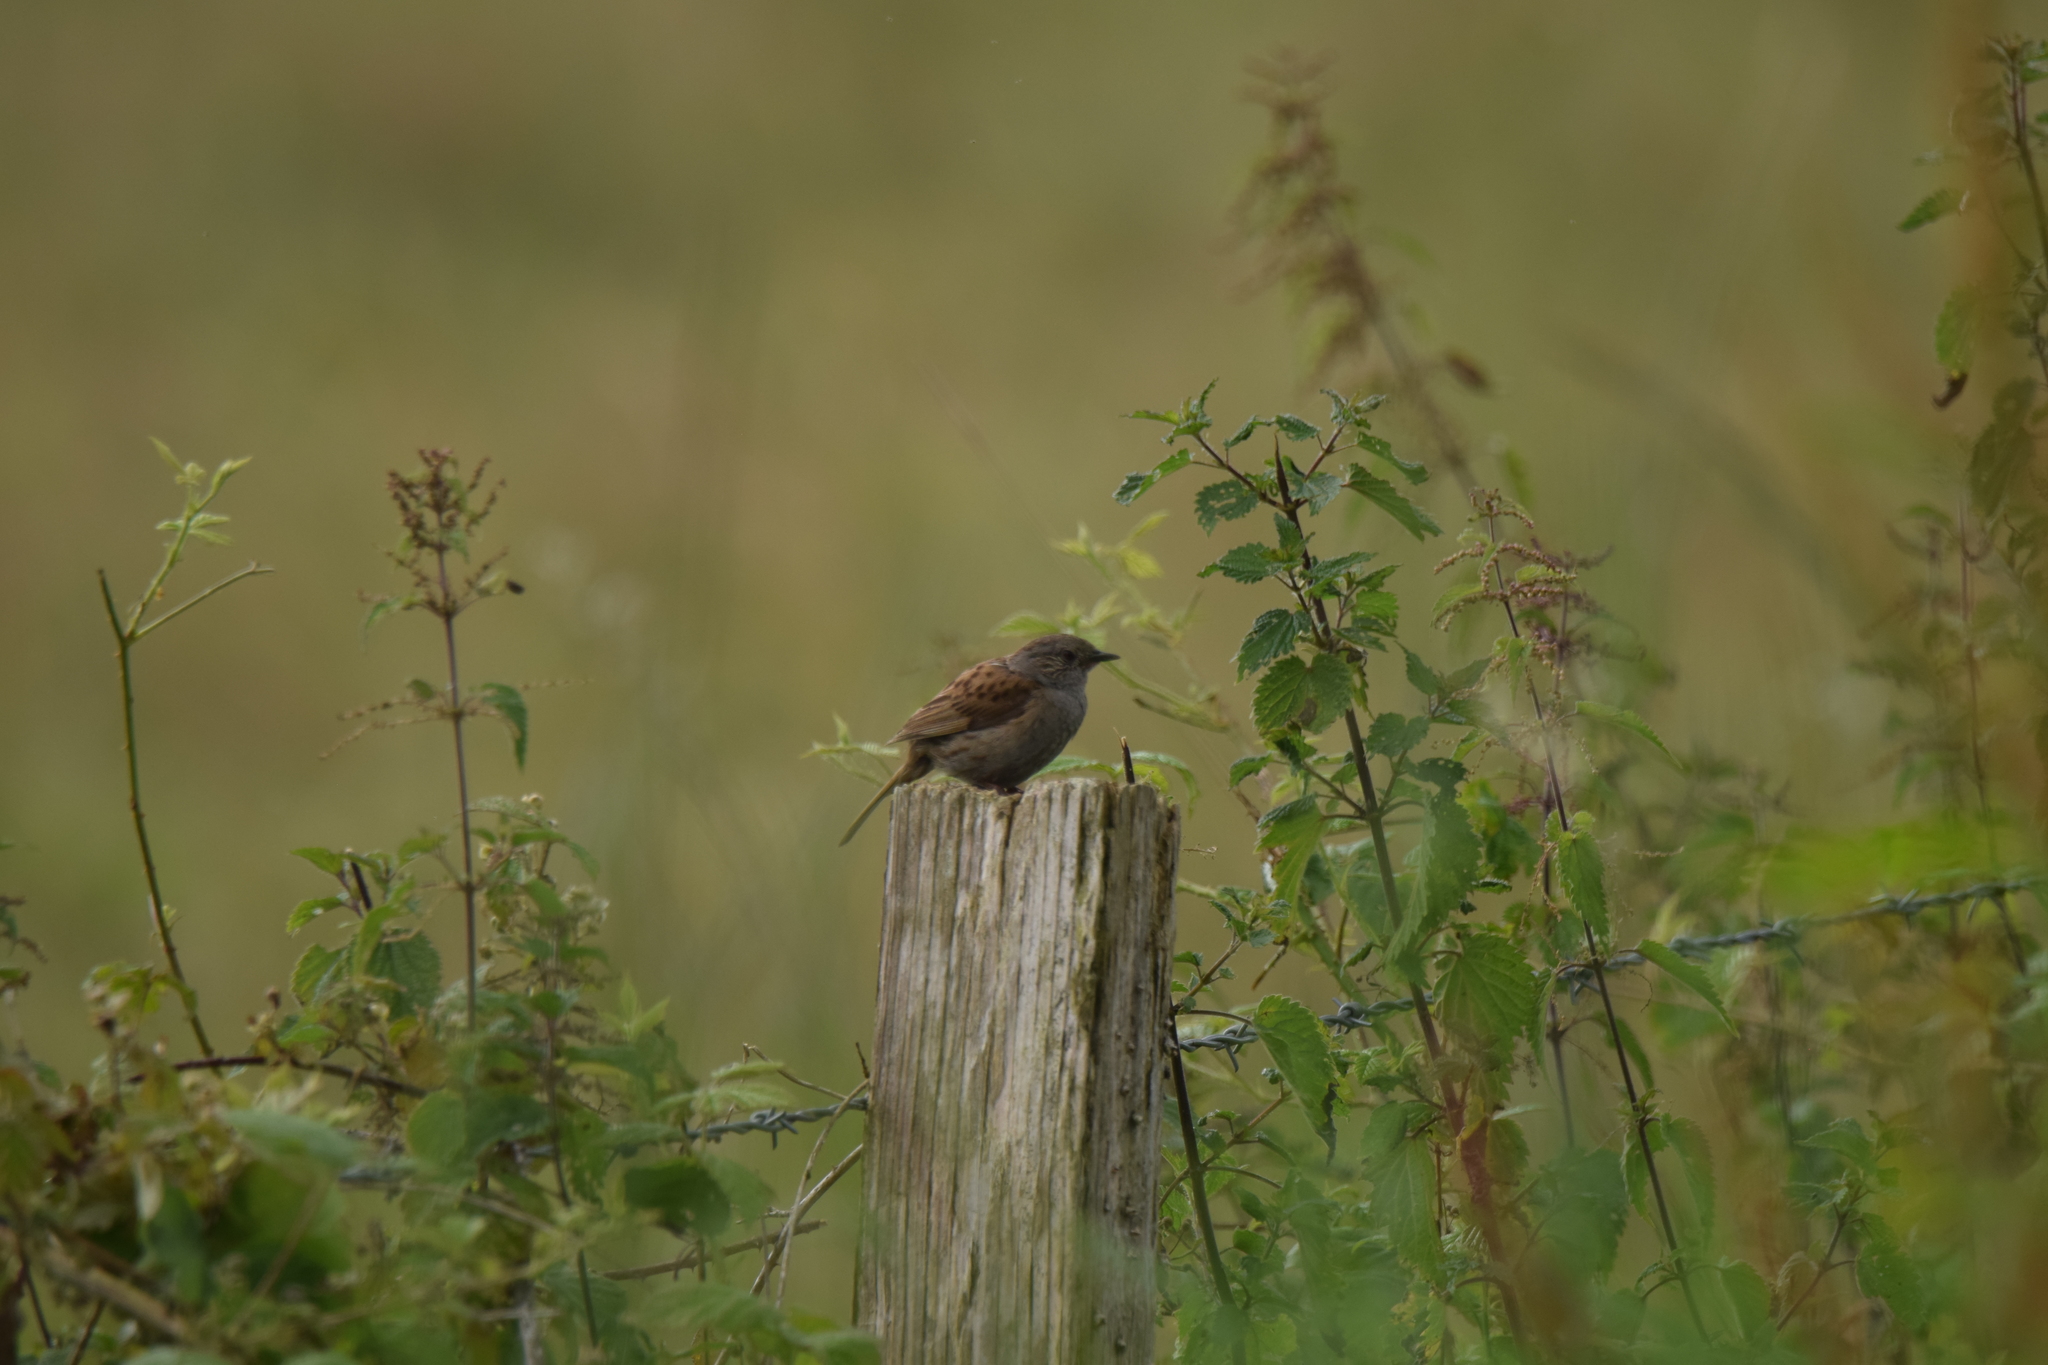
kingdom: Animalia
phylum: Chordata
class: Aves
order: Passeriformes
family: Prunellidae
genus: Prunella
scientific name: Prunella modularis
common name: Dunnock
